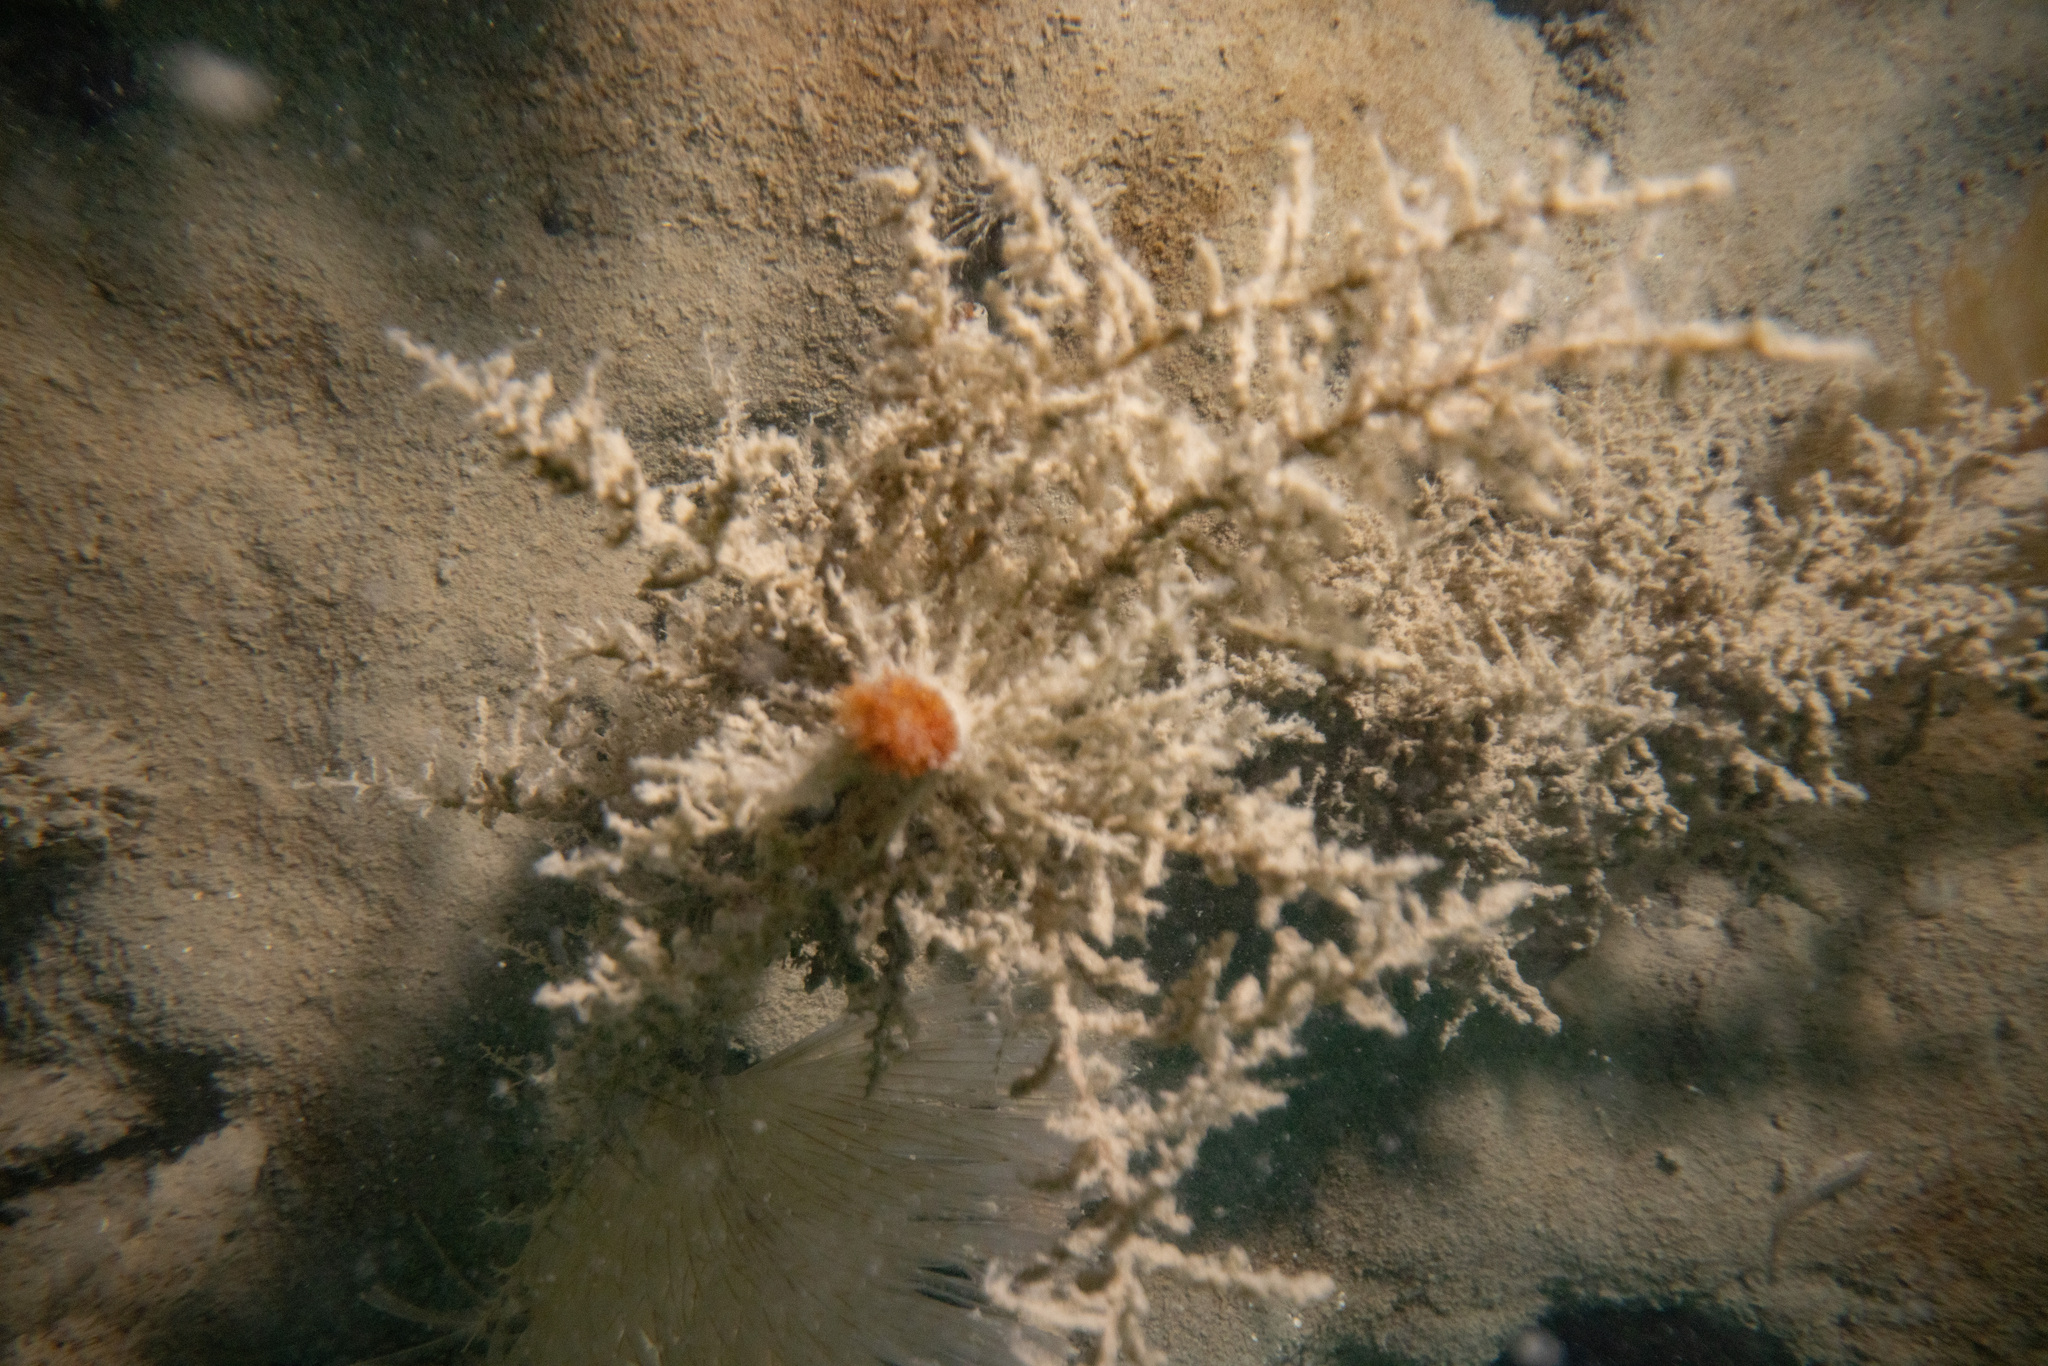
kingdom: Animalia
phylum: Annelida
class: Polychaeta
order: Sabellida
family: Sabellidae
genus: Sabella
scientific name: Sabella spallanzanii
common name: Feather duster worm
